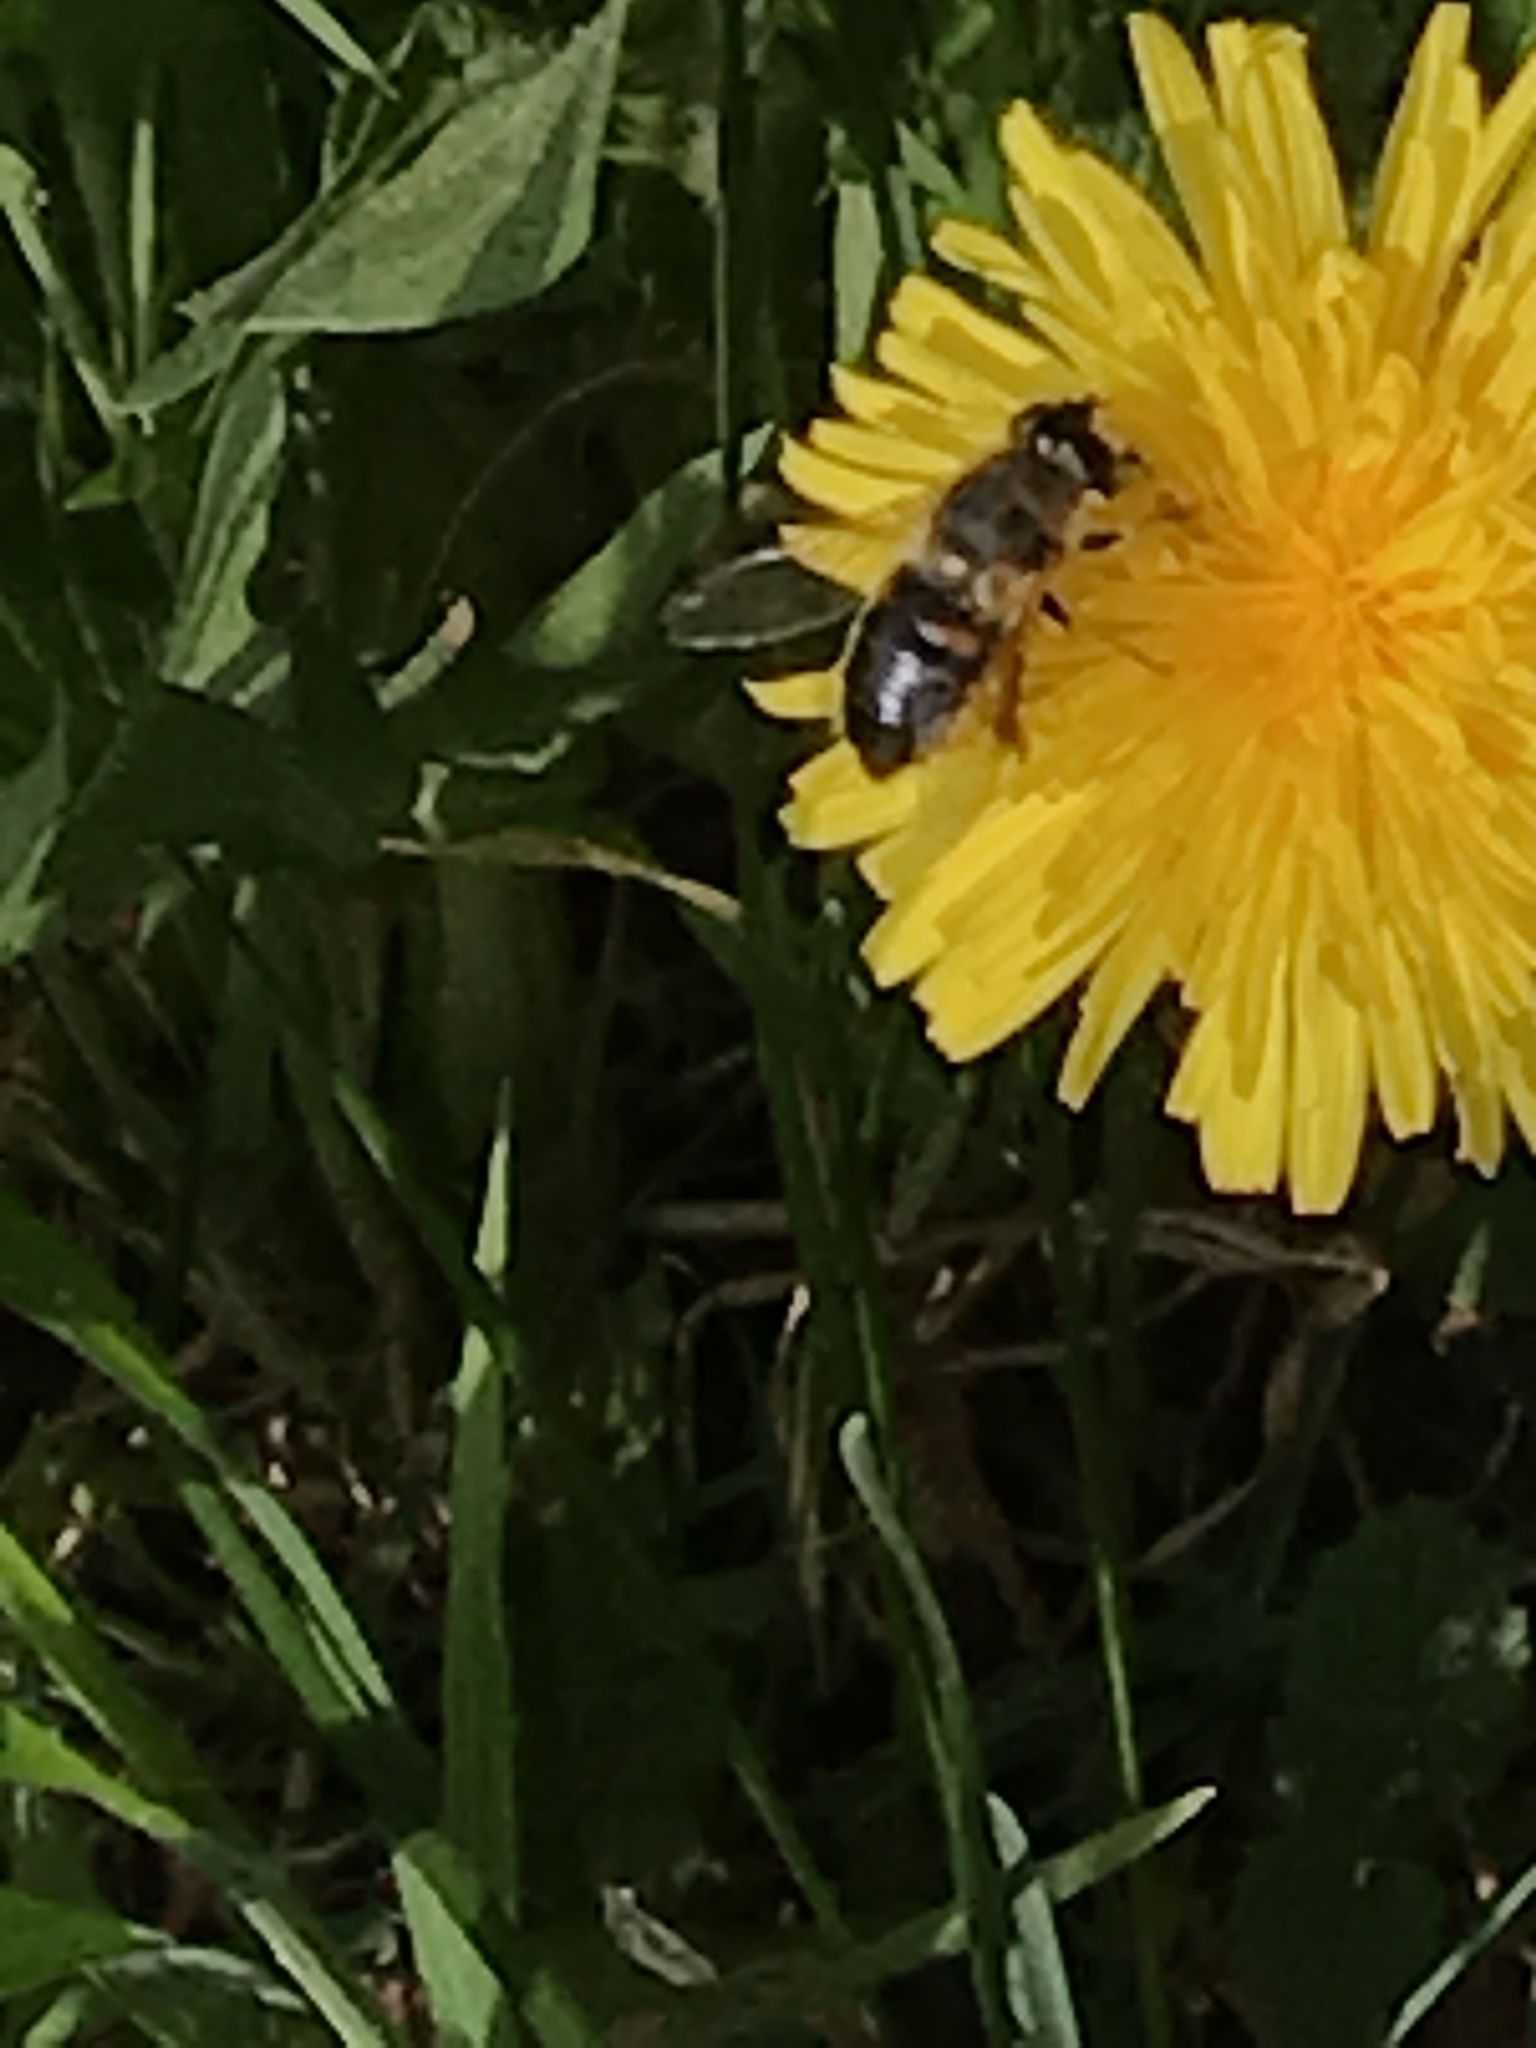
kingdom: Animalia
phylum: Arthropoda
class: Insecta
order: Diptera
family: Syrphidae
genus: Eristalis
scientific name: Eristalis tenax
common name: Drone fly
